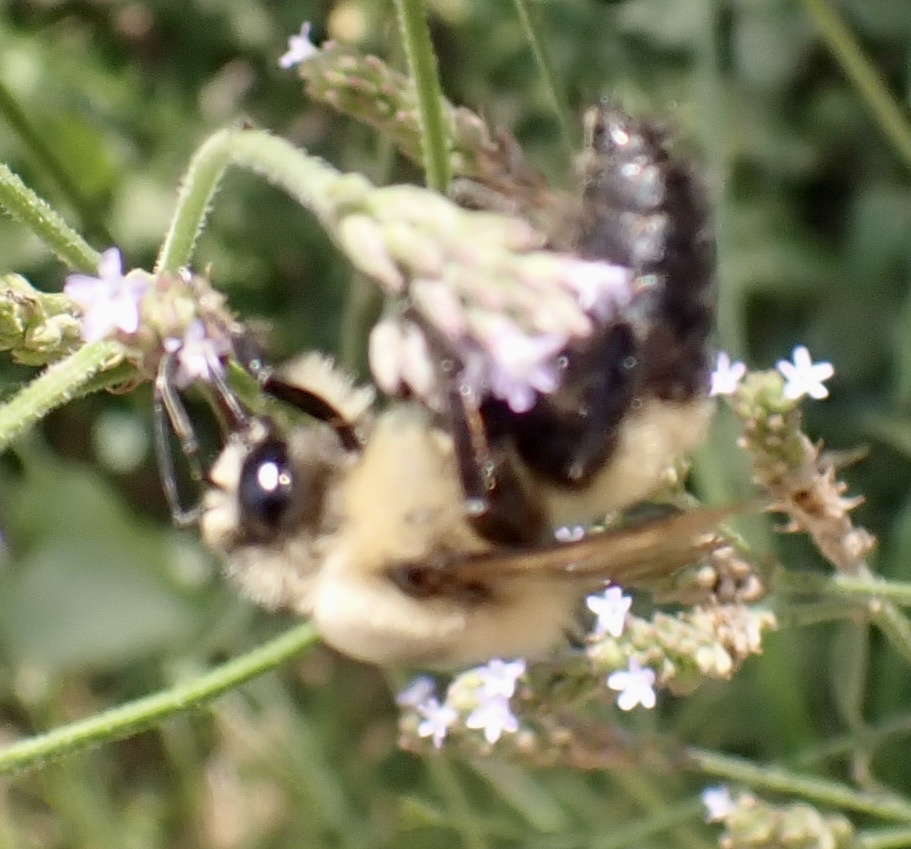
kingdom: Animalia
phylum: Arthropoda
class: Insecta
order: Hymenoptera
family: Apidae
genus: Bombus
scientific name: Bombus griseocollis
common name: Brown-belted bumble bee
